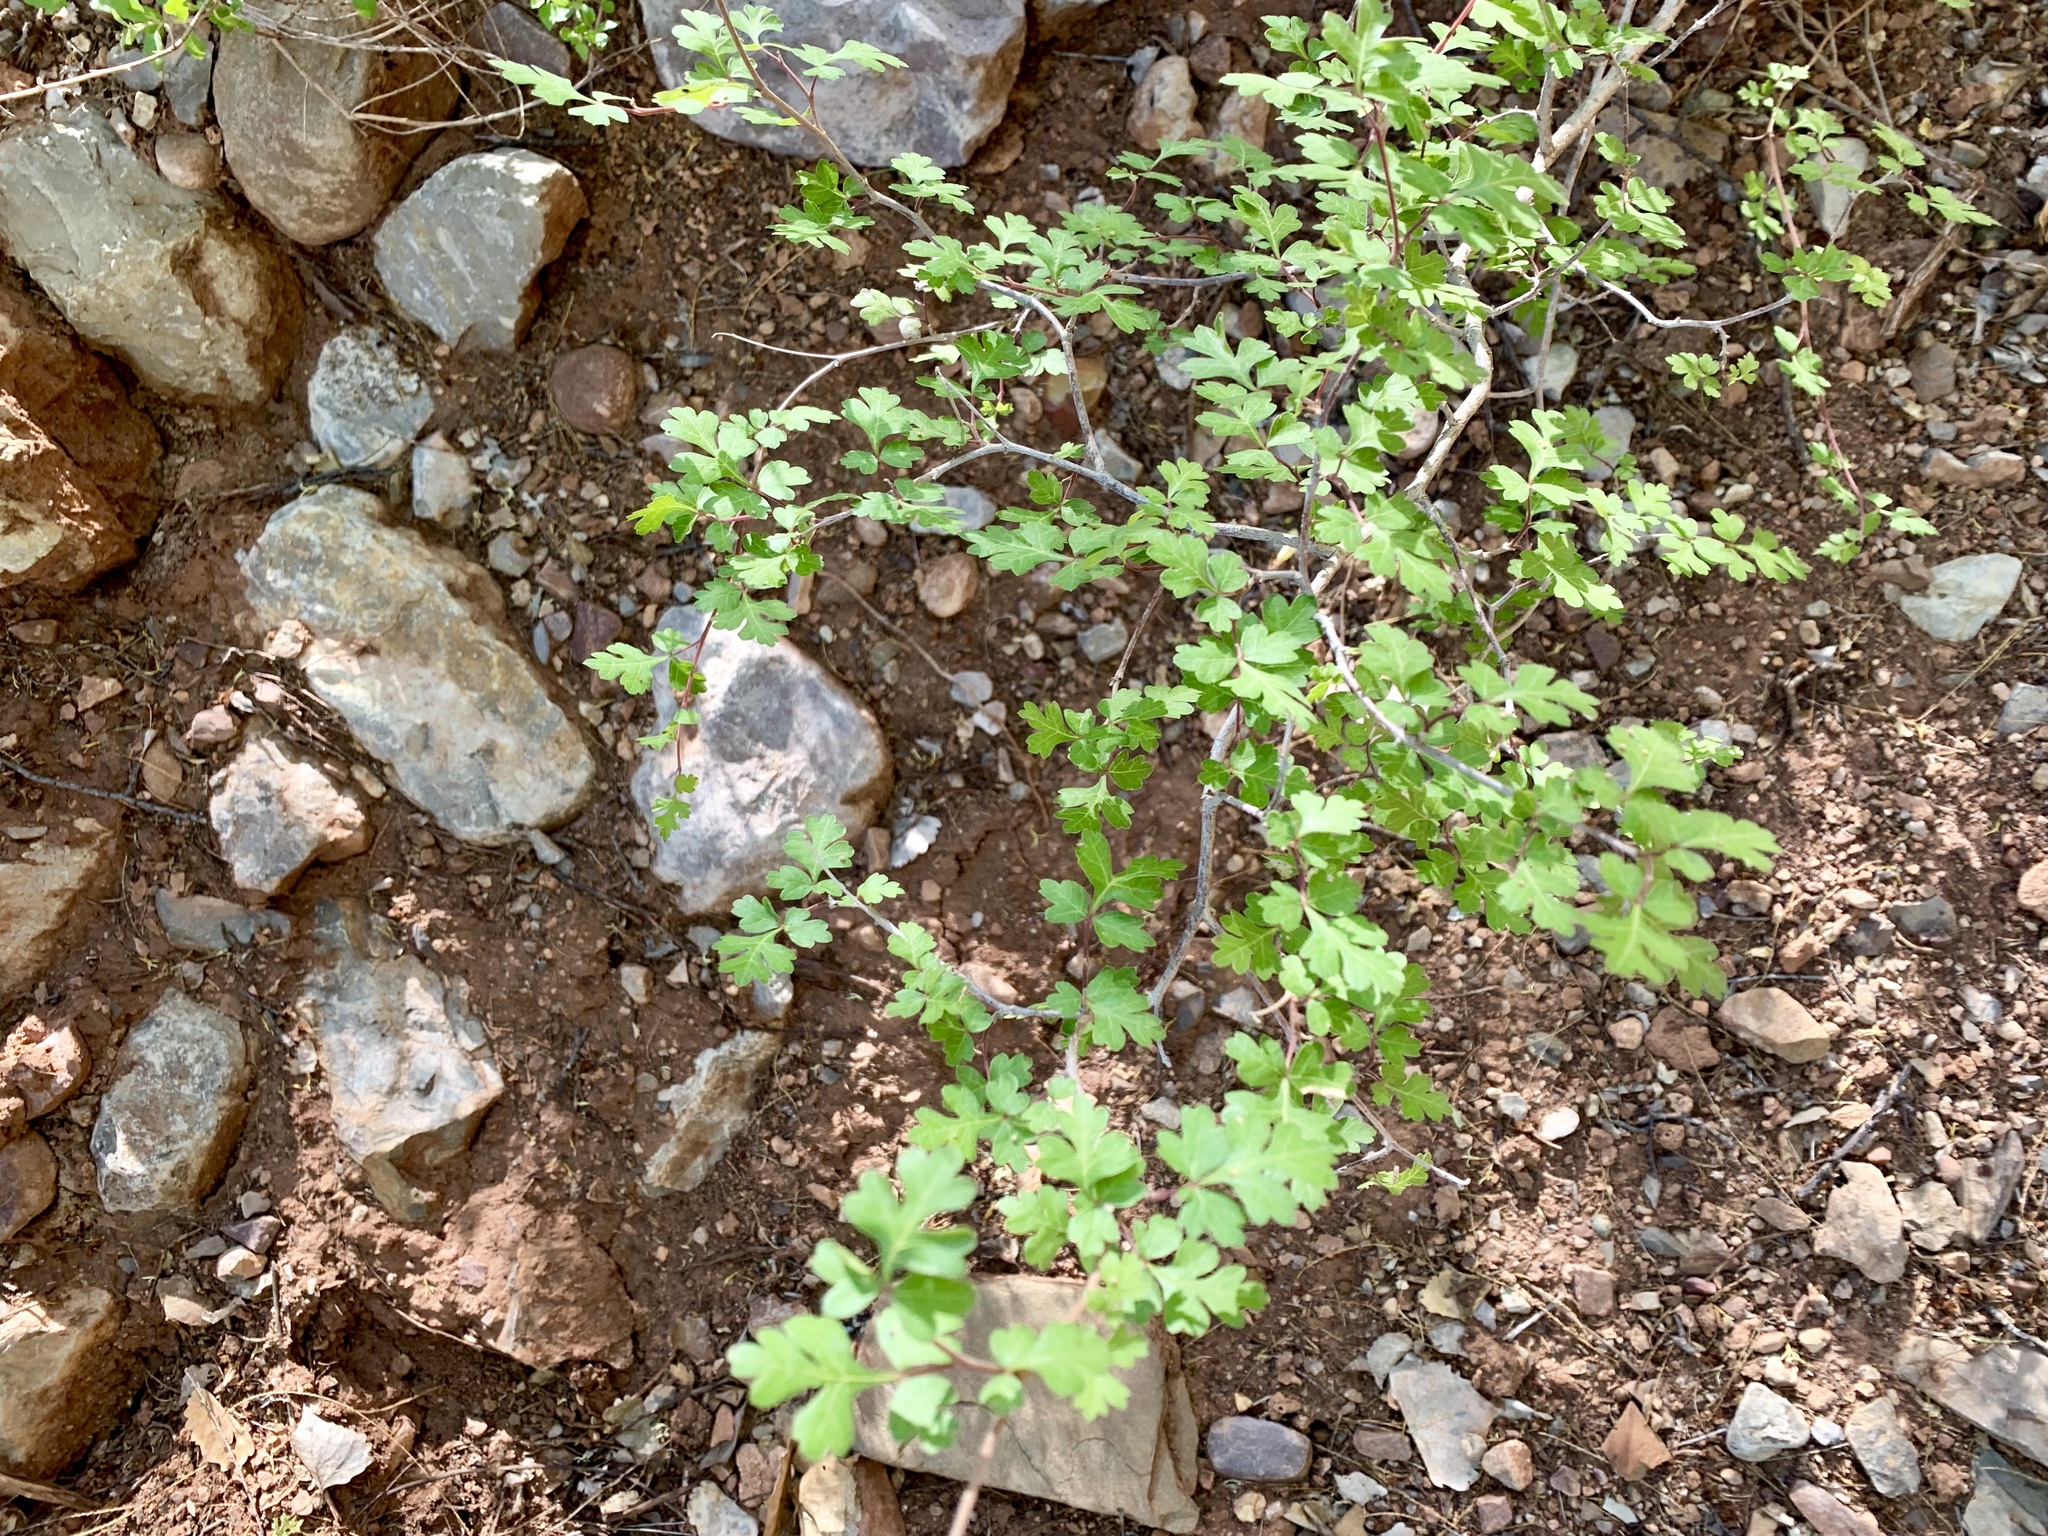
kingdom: Plantae
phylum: Tracheophyta
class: Magnoliopsida
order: Sapindales
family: Anacardiaceae
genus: Rhus
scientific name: Rhus aromatica
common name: Aromatic sumac
